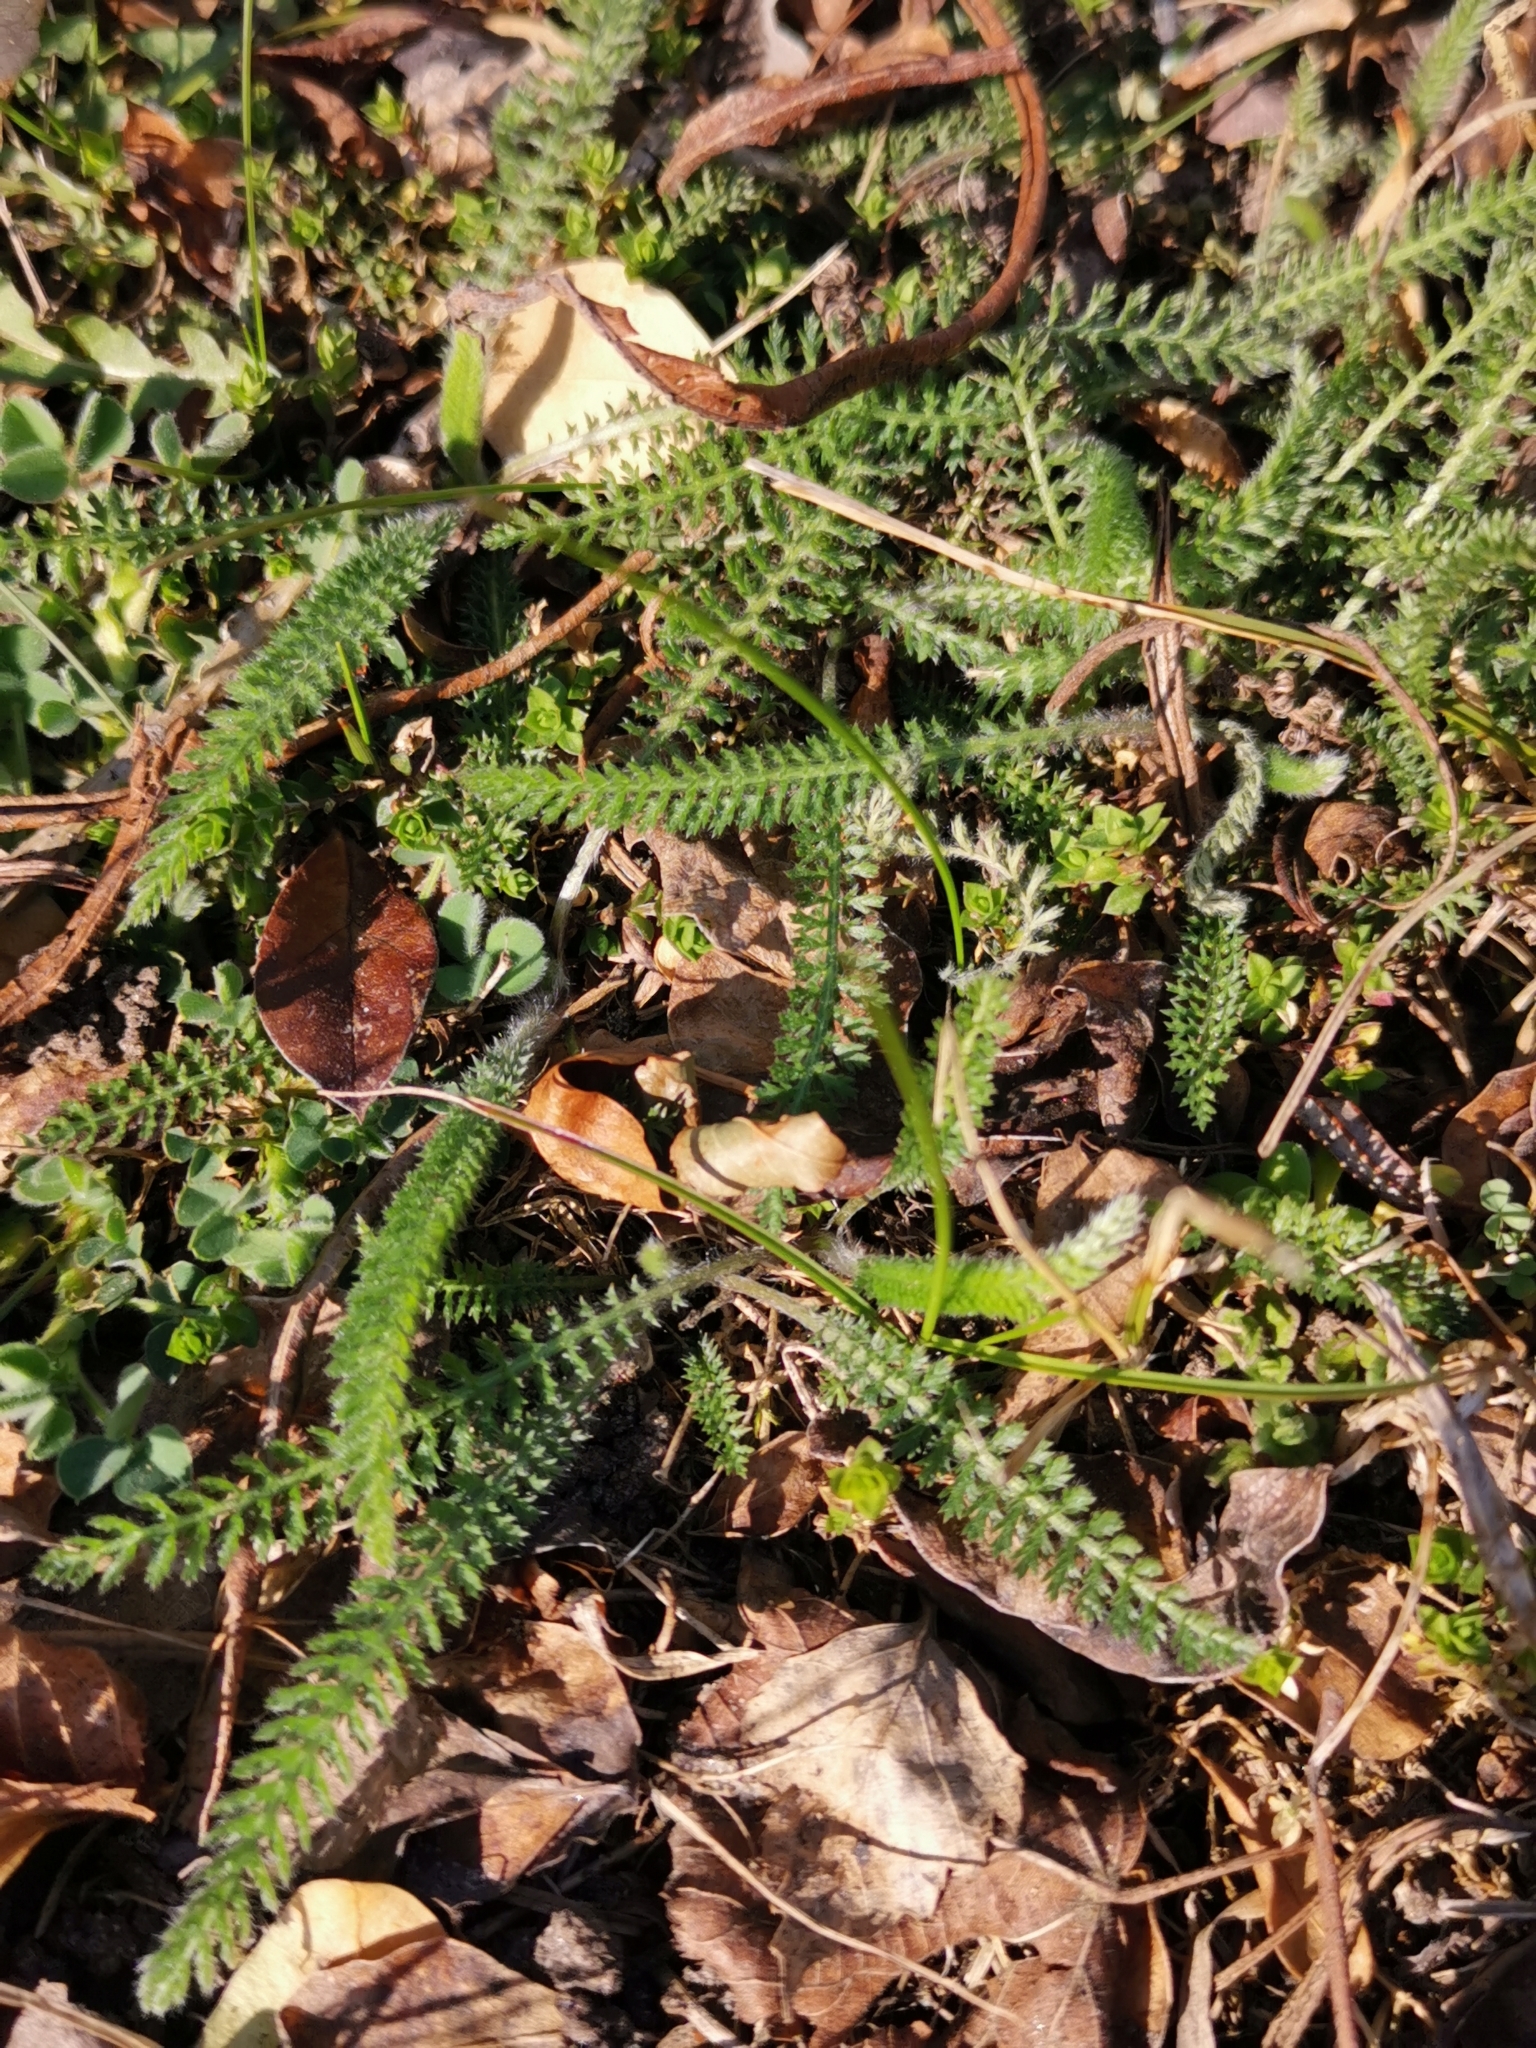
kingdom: Plantae
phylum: Tracheophyta
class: Magnoliopsida
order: Asterales
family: Asteraceae
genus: Achillea
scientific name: Achillea millefolium
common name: Yarrow
